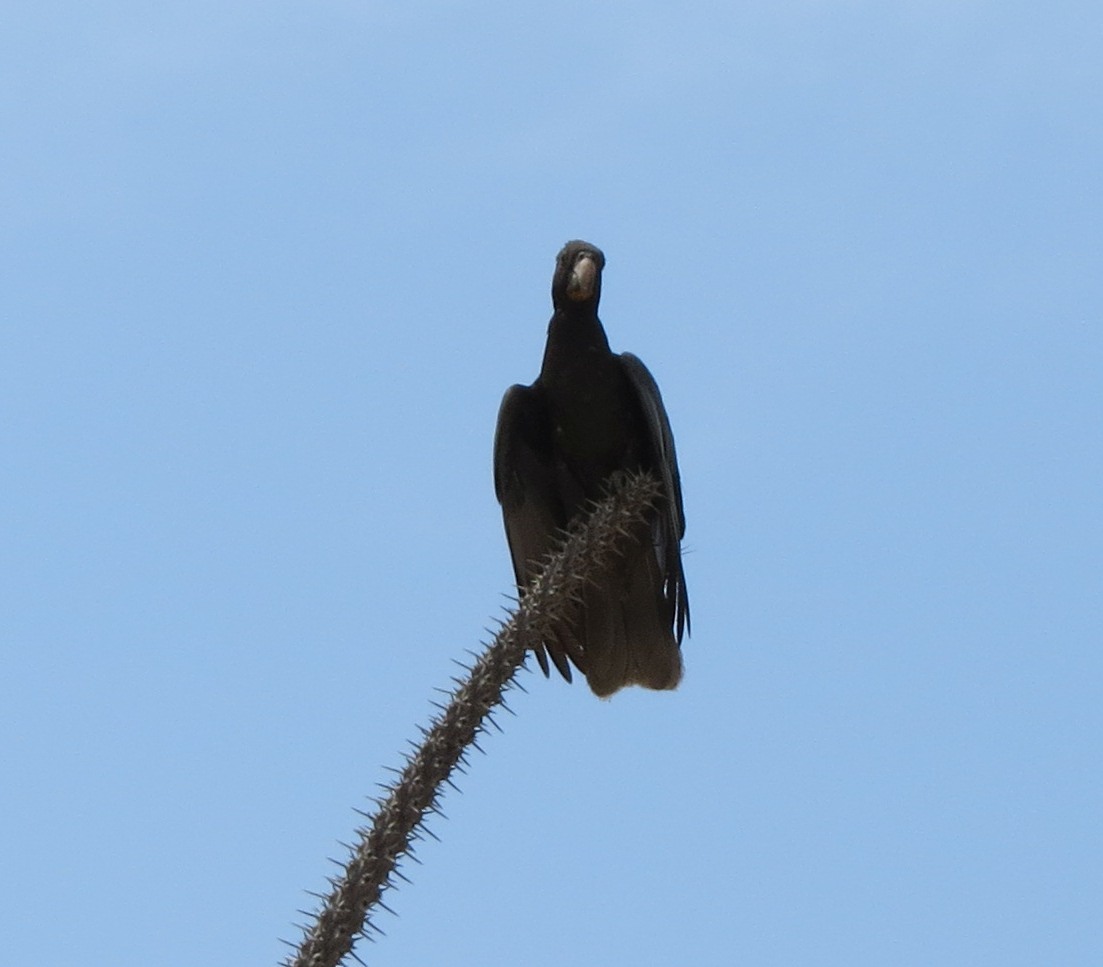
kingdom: Animalia
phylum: Chordata
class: Aves
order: Psittaciformes
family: Psittacidae
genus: Coracopsis
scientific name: Coracopsis
